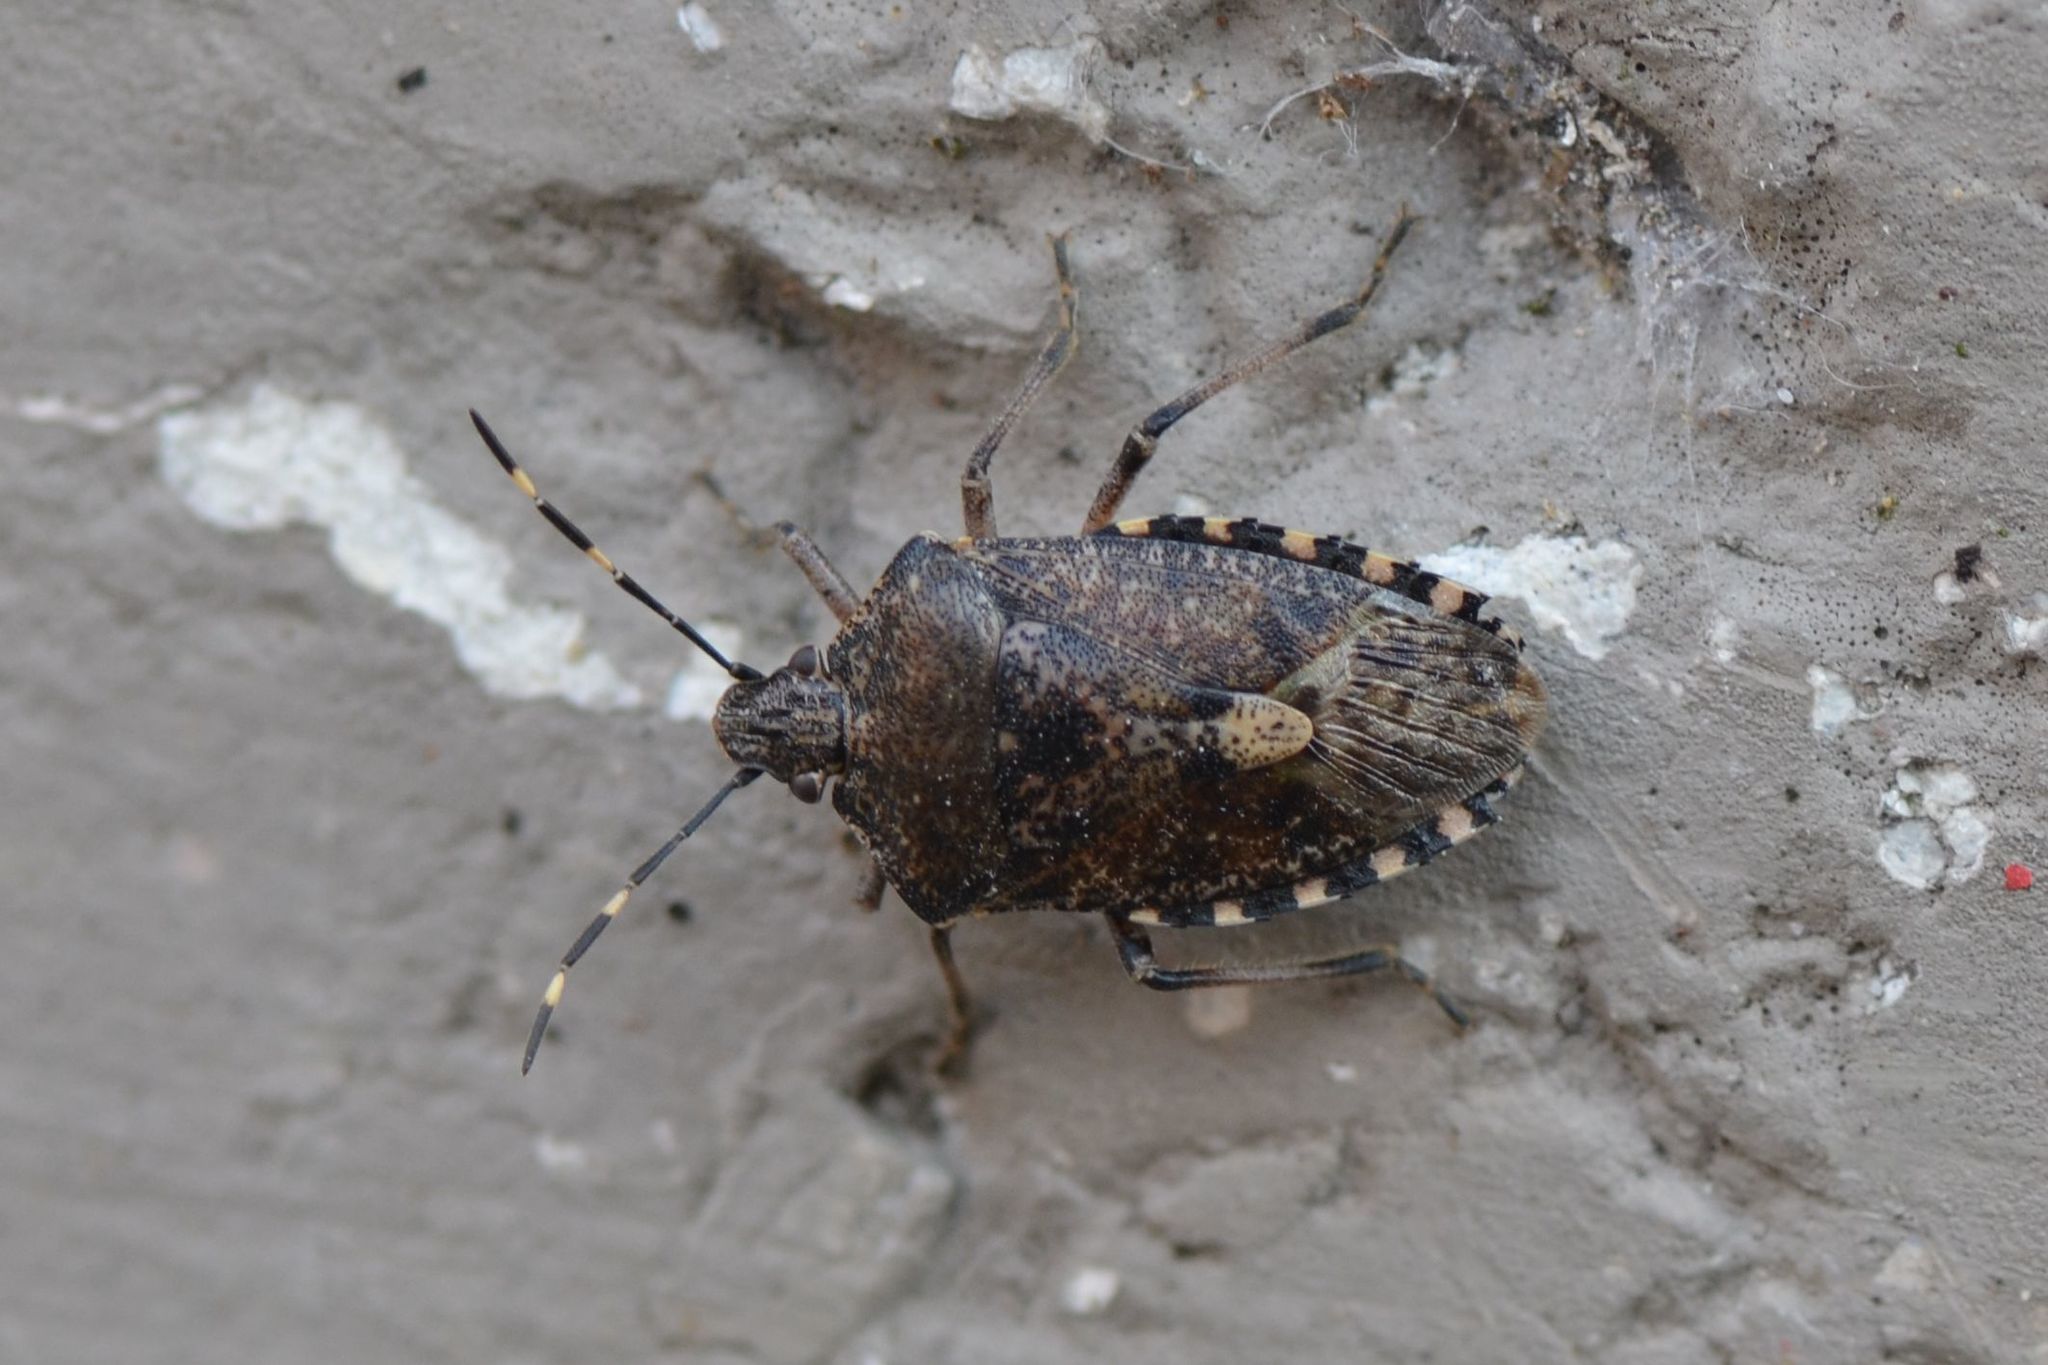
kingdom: Animalia
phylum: Arthropoda
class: Insecta
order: Hemiptera
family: Pentatomidae
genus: Rhaphigaster
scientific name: Rhaphigaster nebulosa
